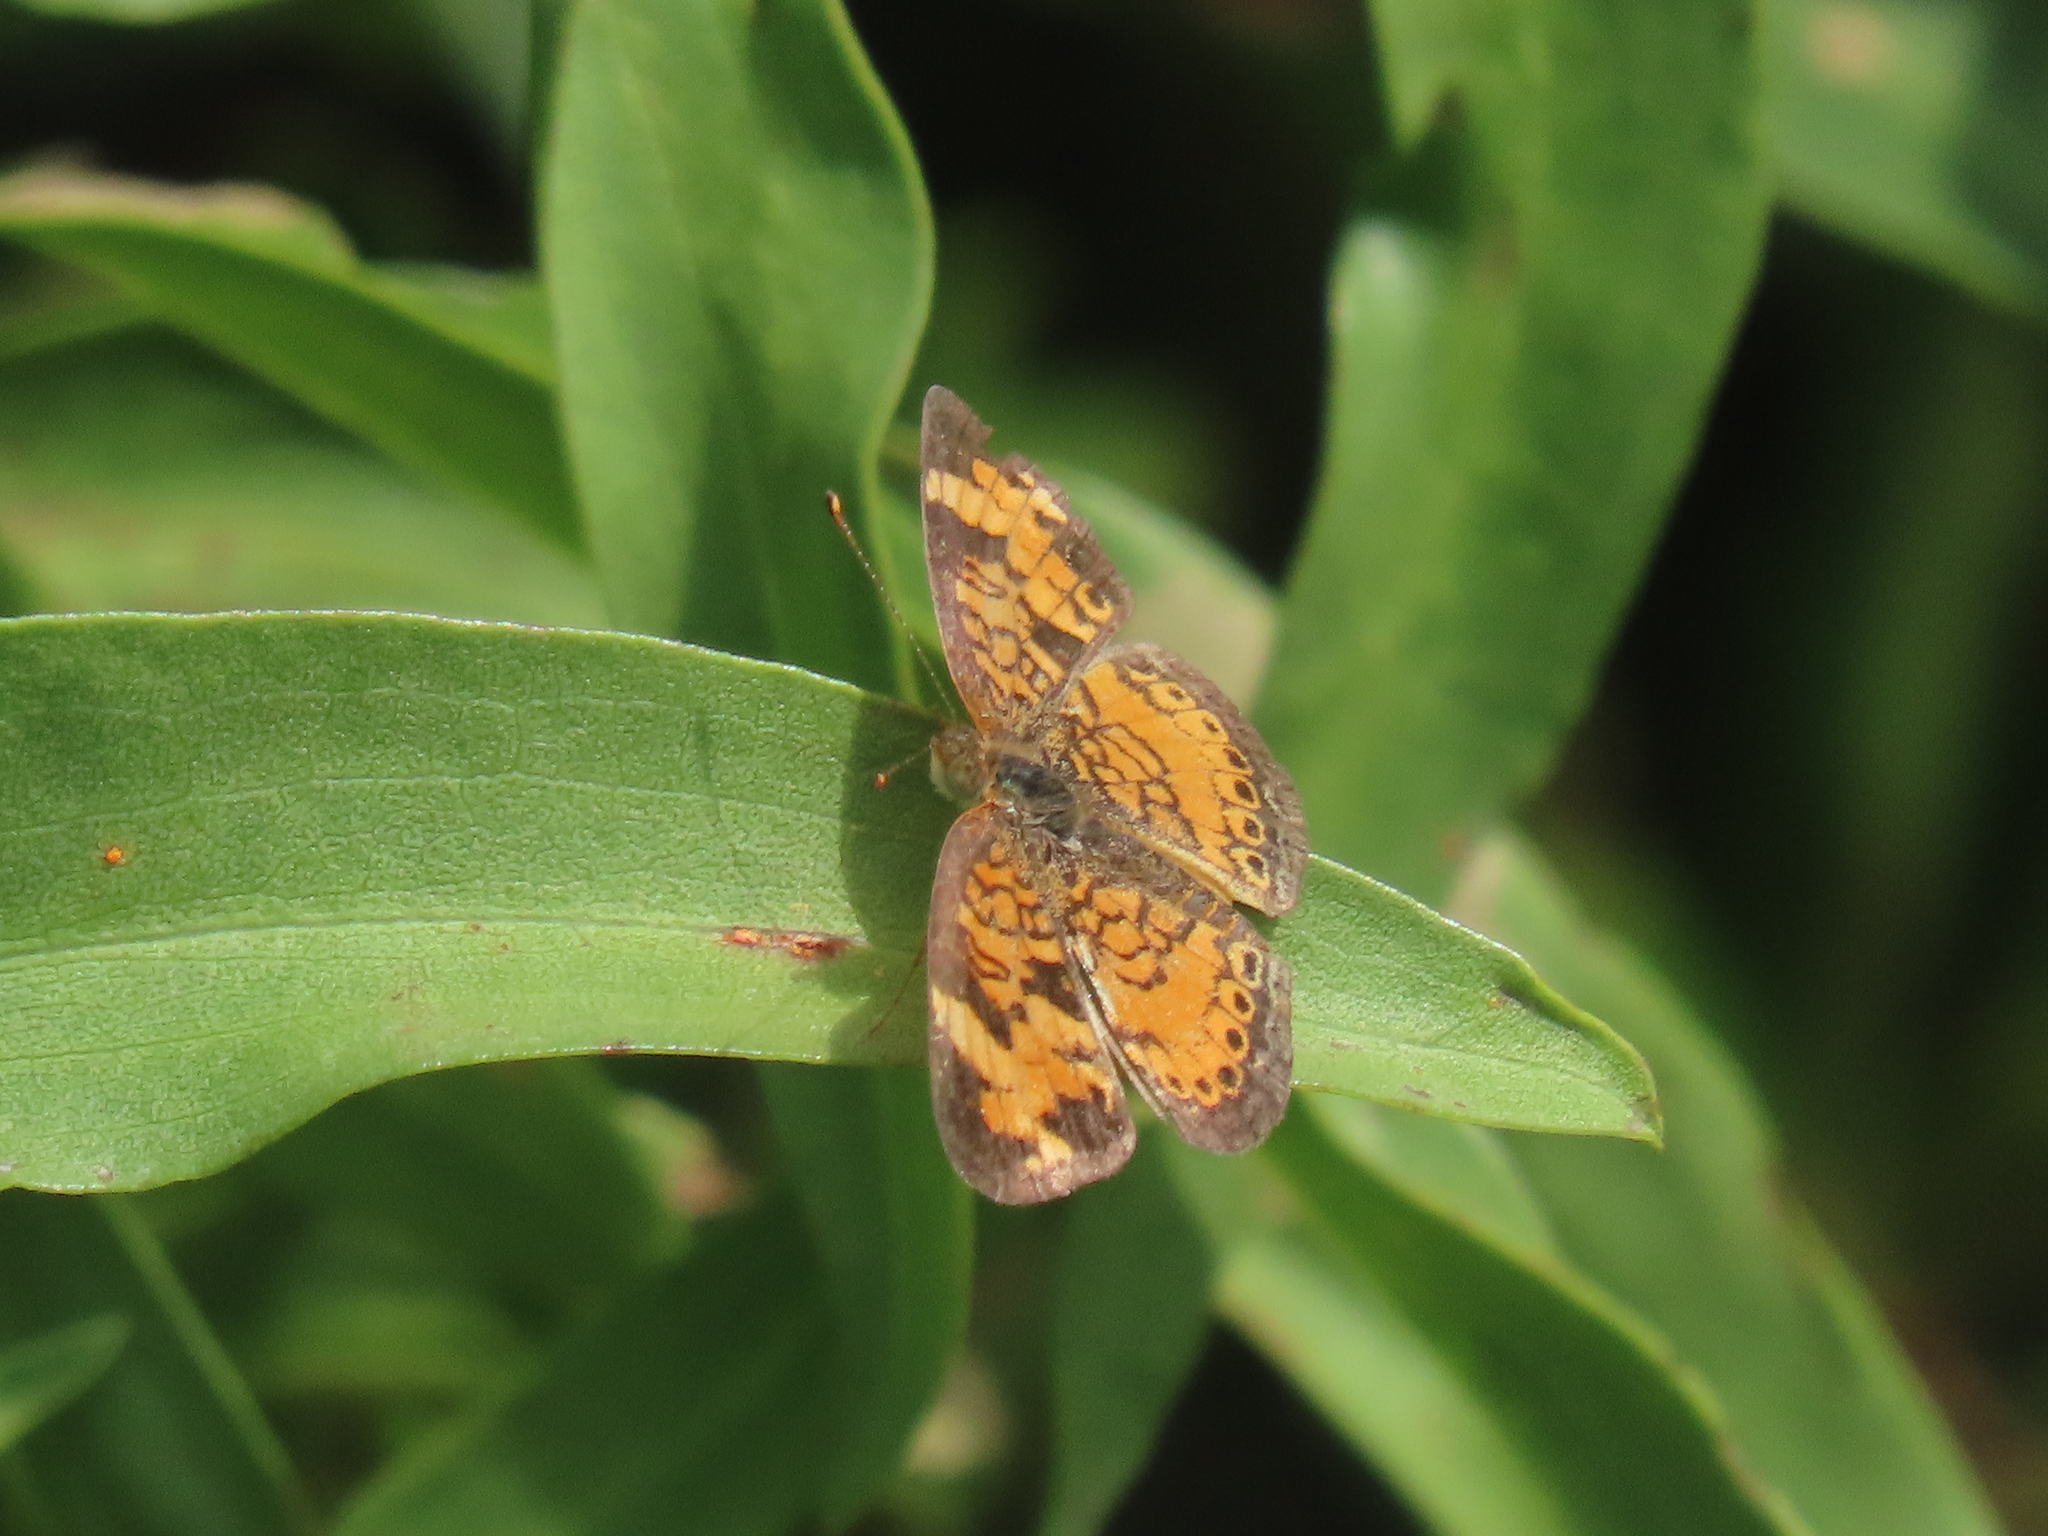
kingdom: Animalia
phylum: Arthropoda
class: Insecta
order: Lepidoptera
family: Nymphalidae
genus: Phyciodes
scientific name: Phyciodes tharos
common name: Pearl crescent
